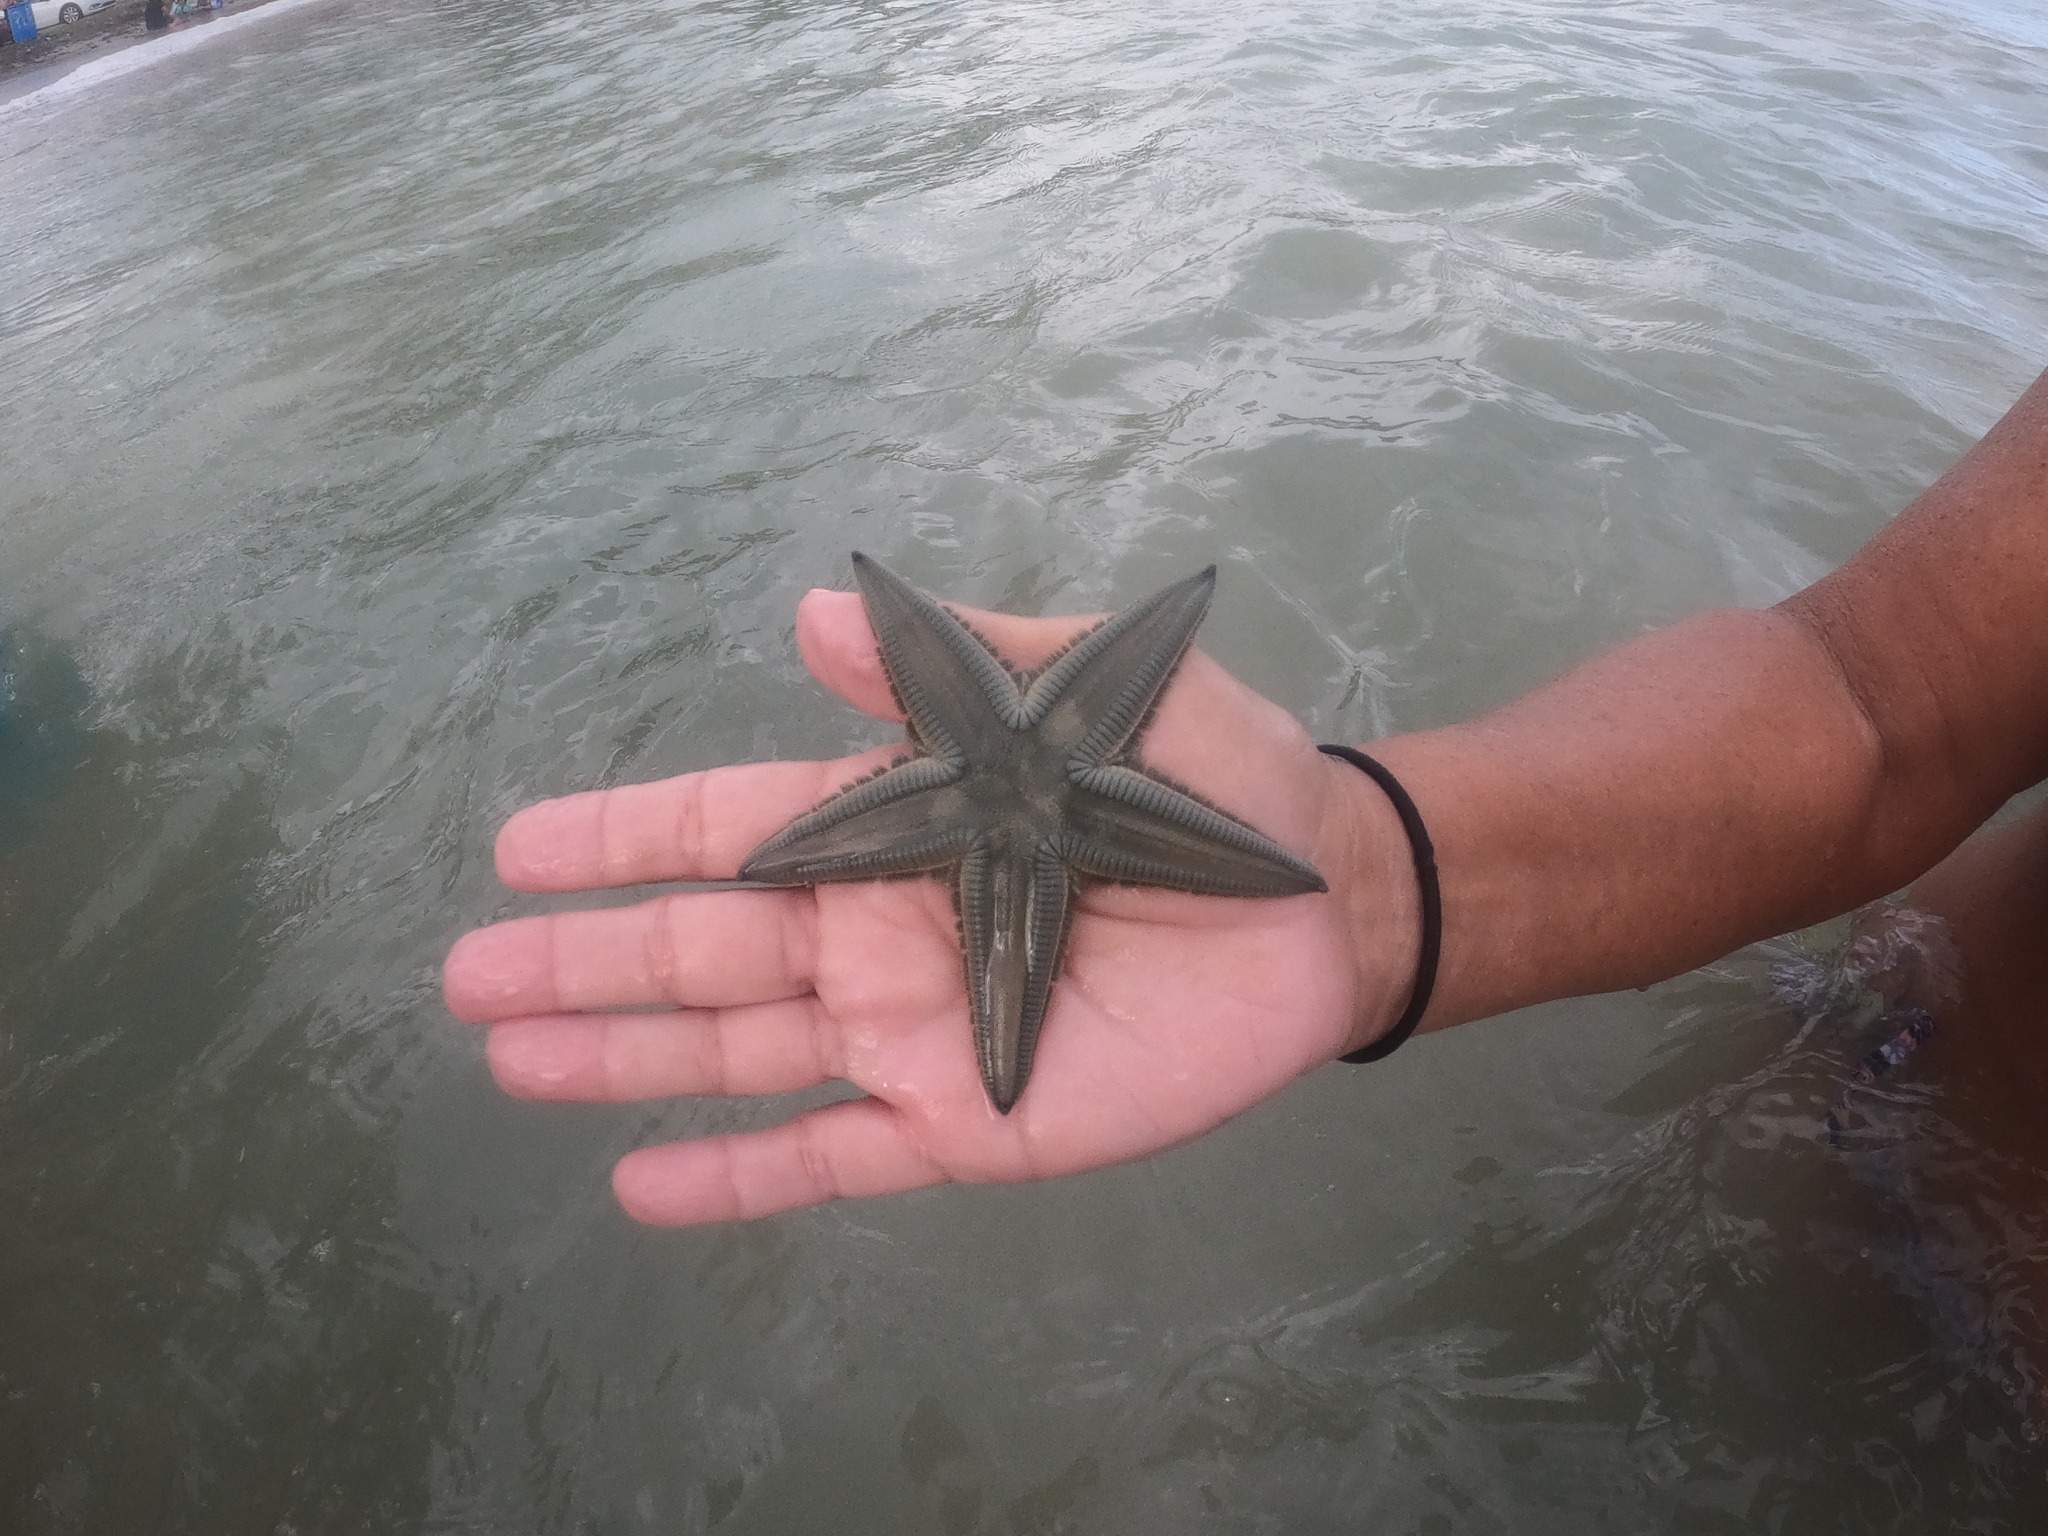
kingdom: Animalia
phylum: Echinodermata
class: Asteroidea
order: Paxillosida
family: Astropectinidae
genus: Astropecten
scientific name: Astropecten marginatus
